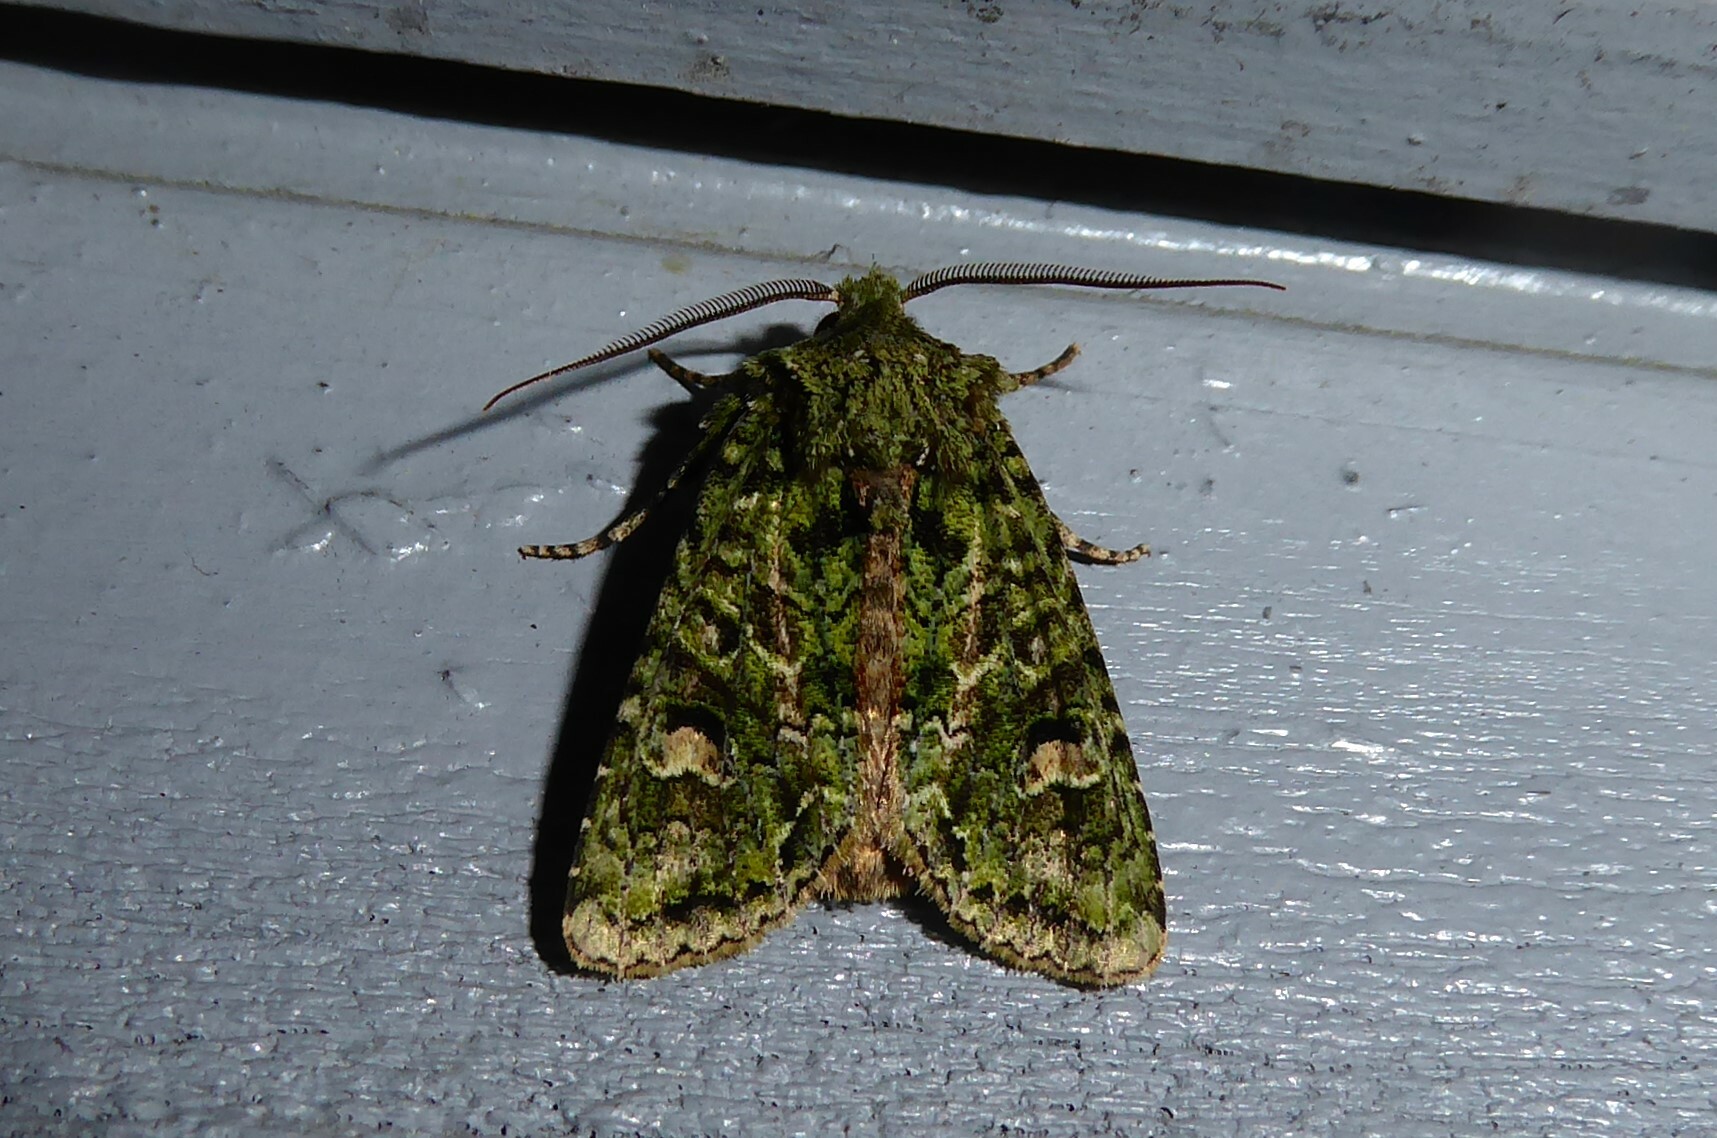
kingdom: Animalia
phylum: Arthropoda
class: Insecta
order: Lepidoptera
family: Noctuidae
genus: Ichneutica
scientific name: Ichneutica
